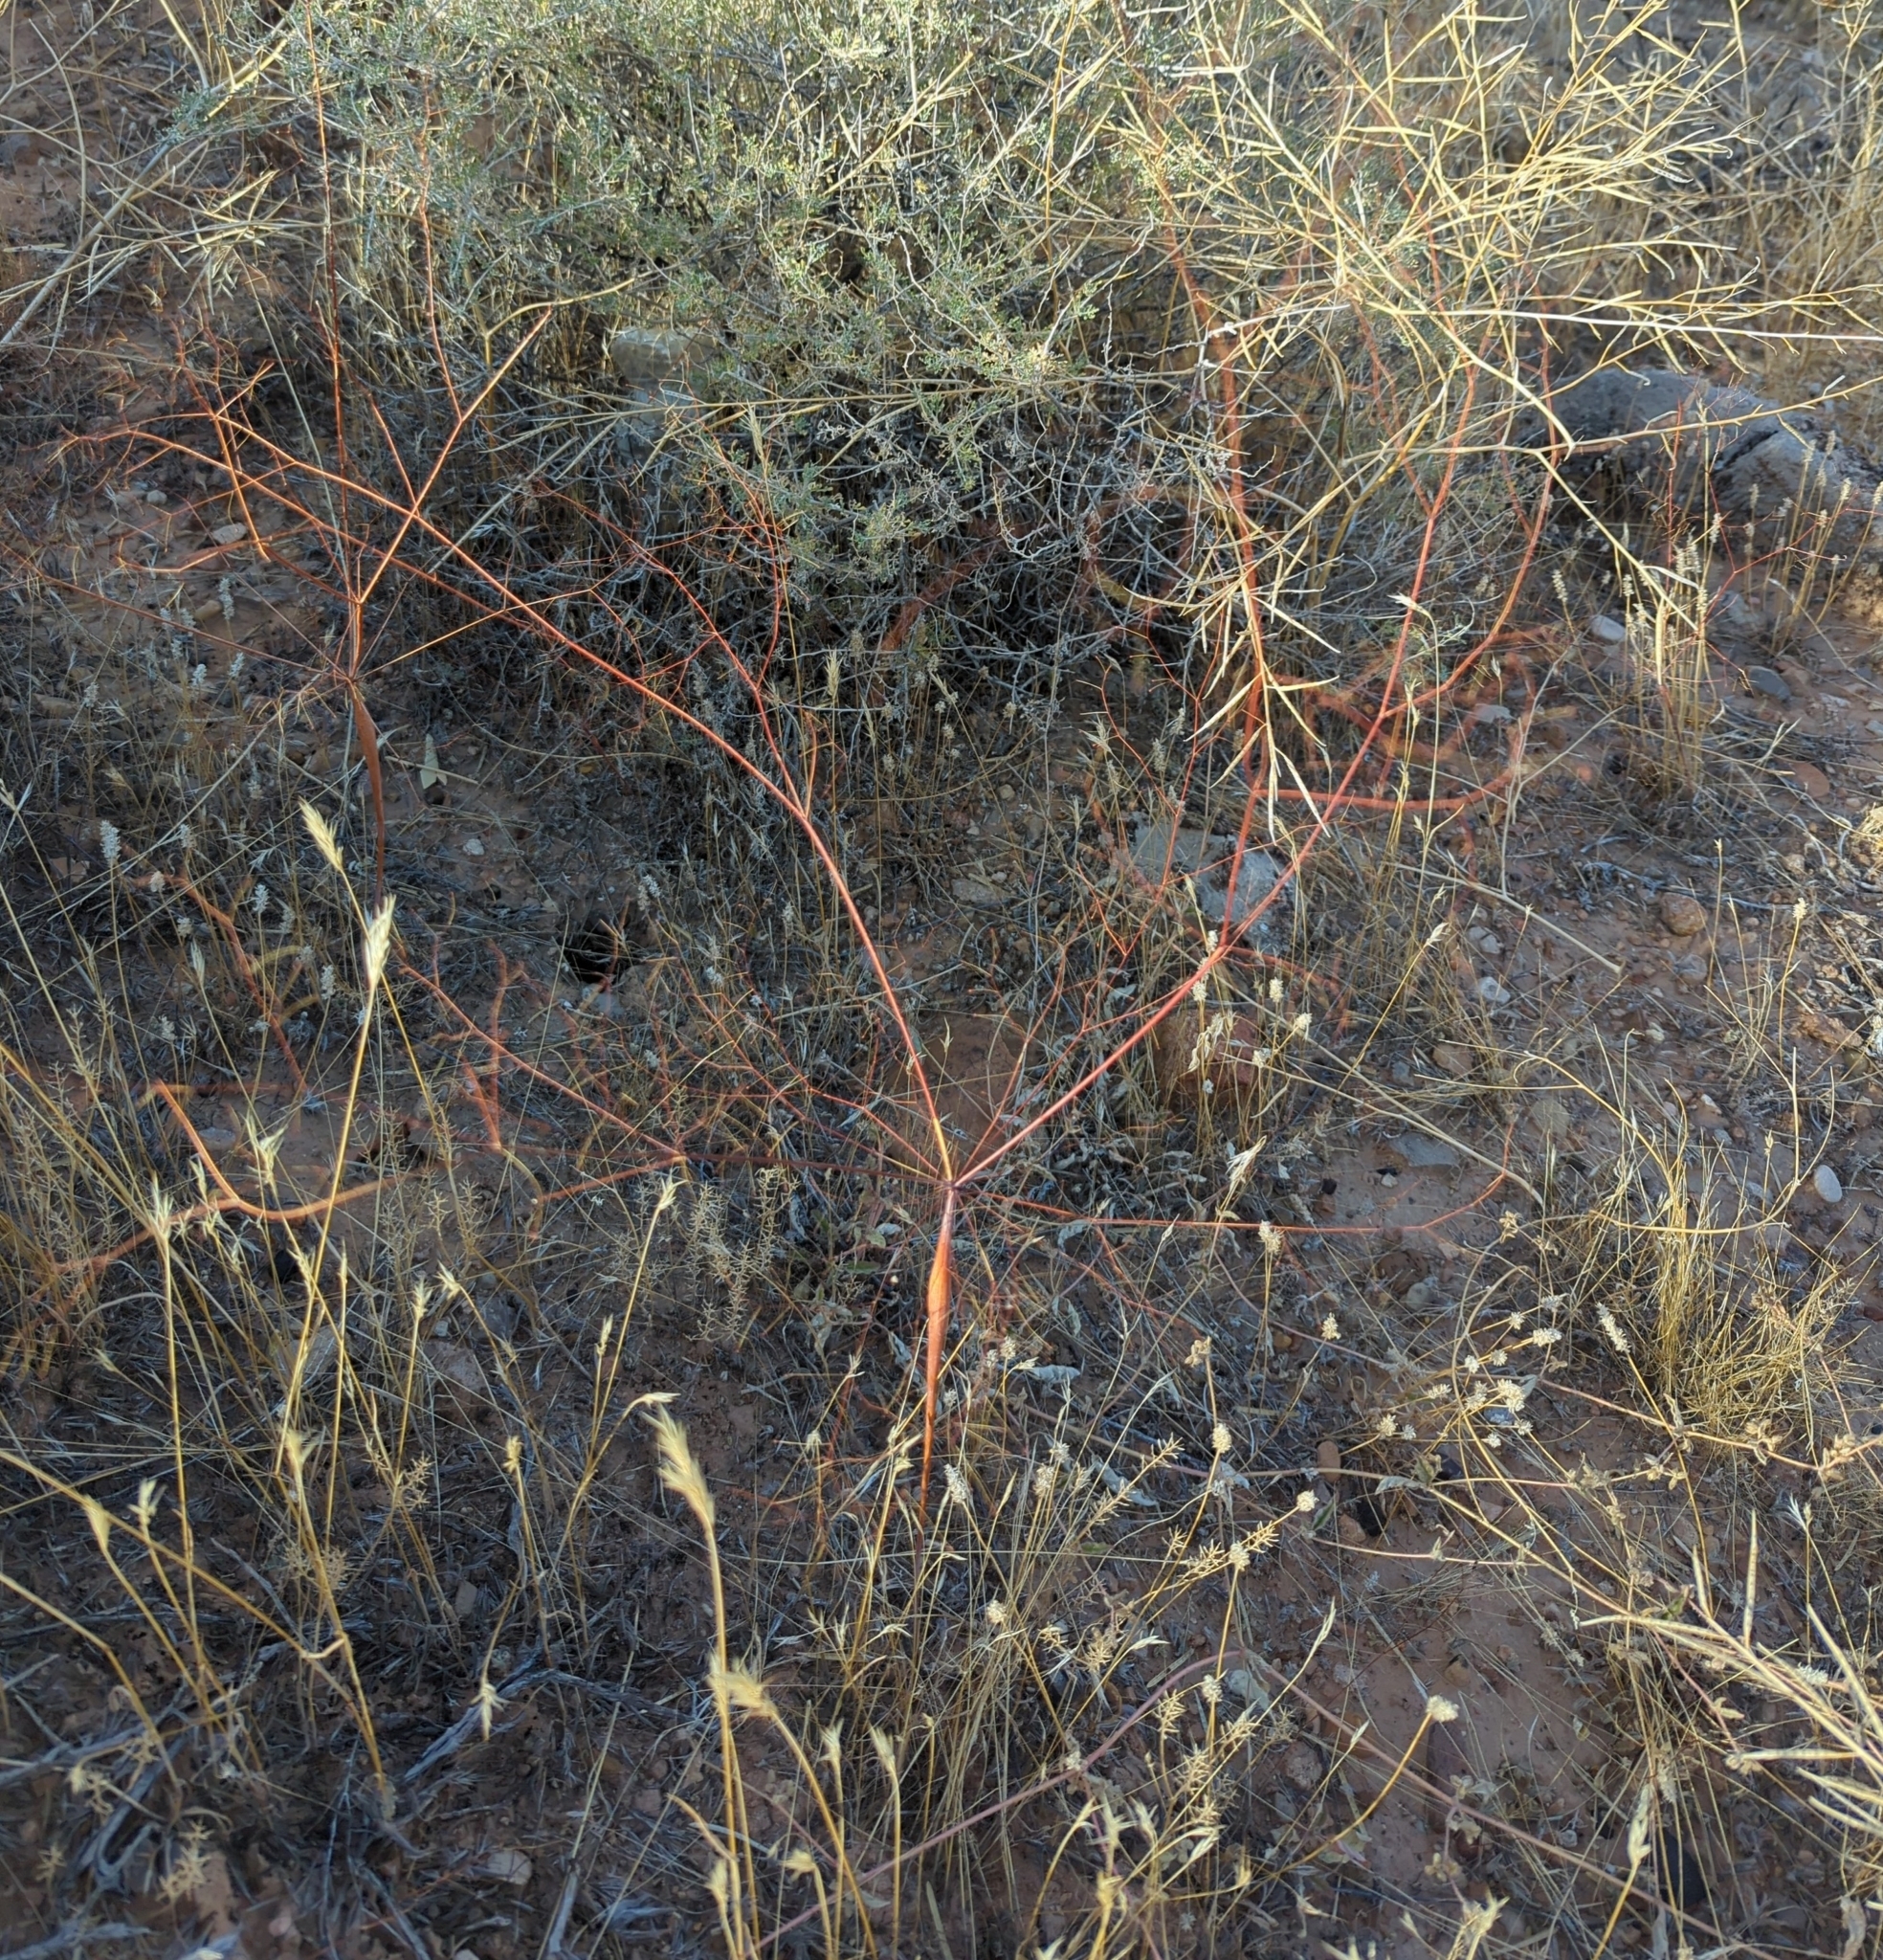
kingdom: Plantae
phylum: Tracheophyta
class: Magnoliopsida
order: Caryophyllales
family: Polygonaceae
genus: Eriogonum
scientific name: Eriogonum inflatum
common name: Desert trumpet
